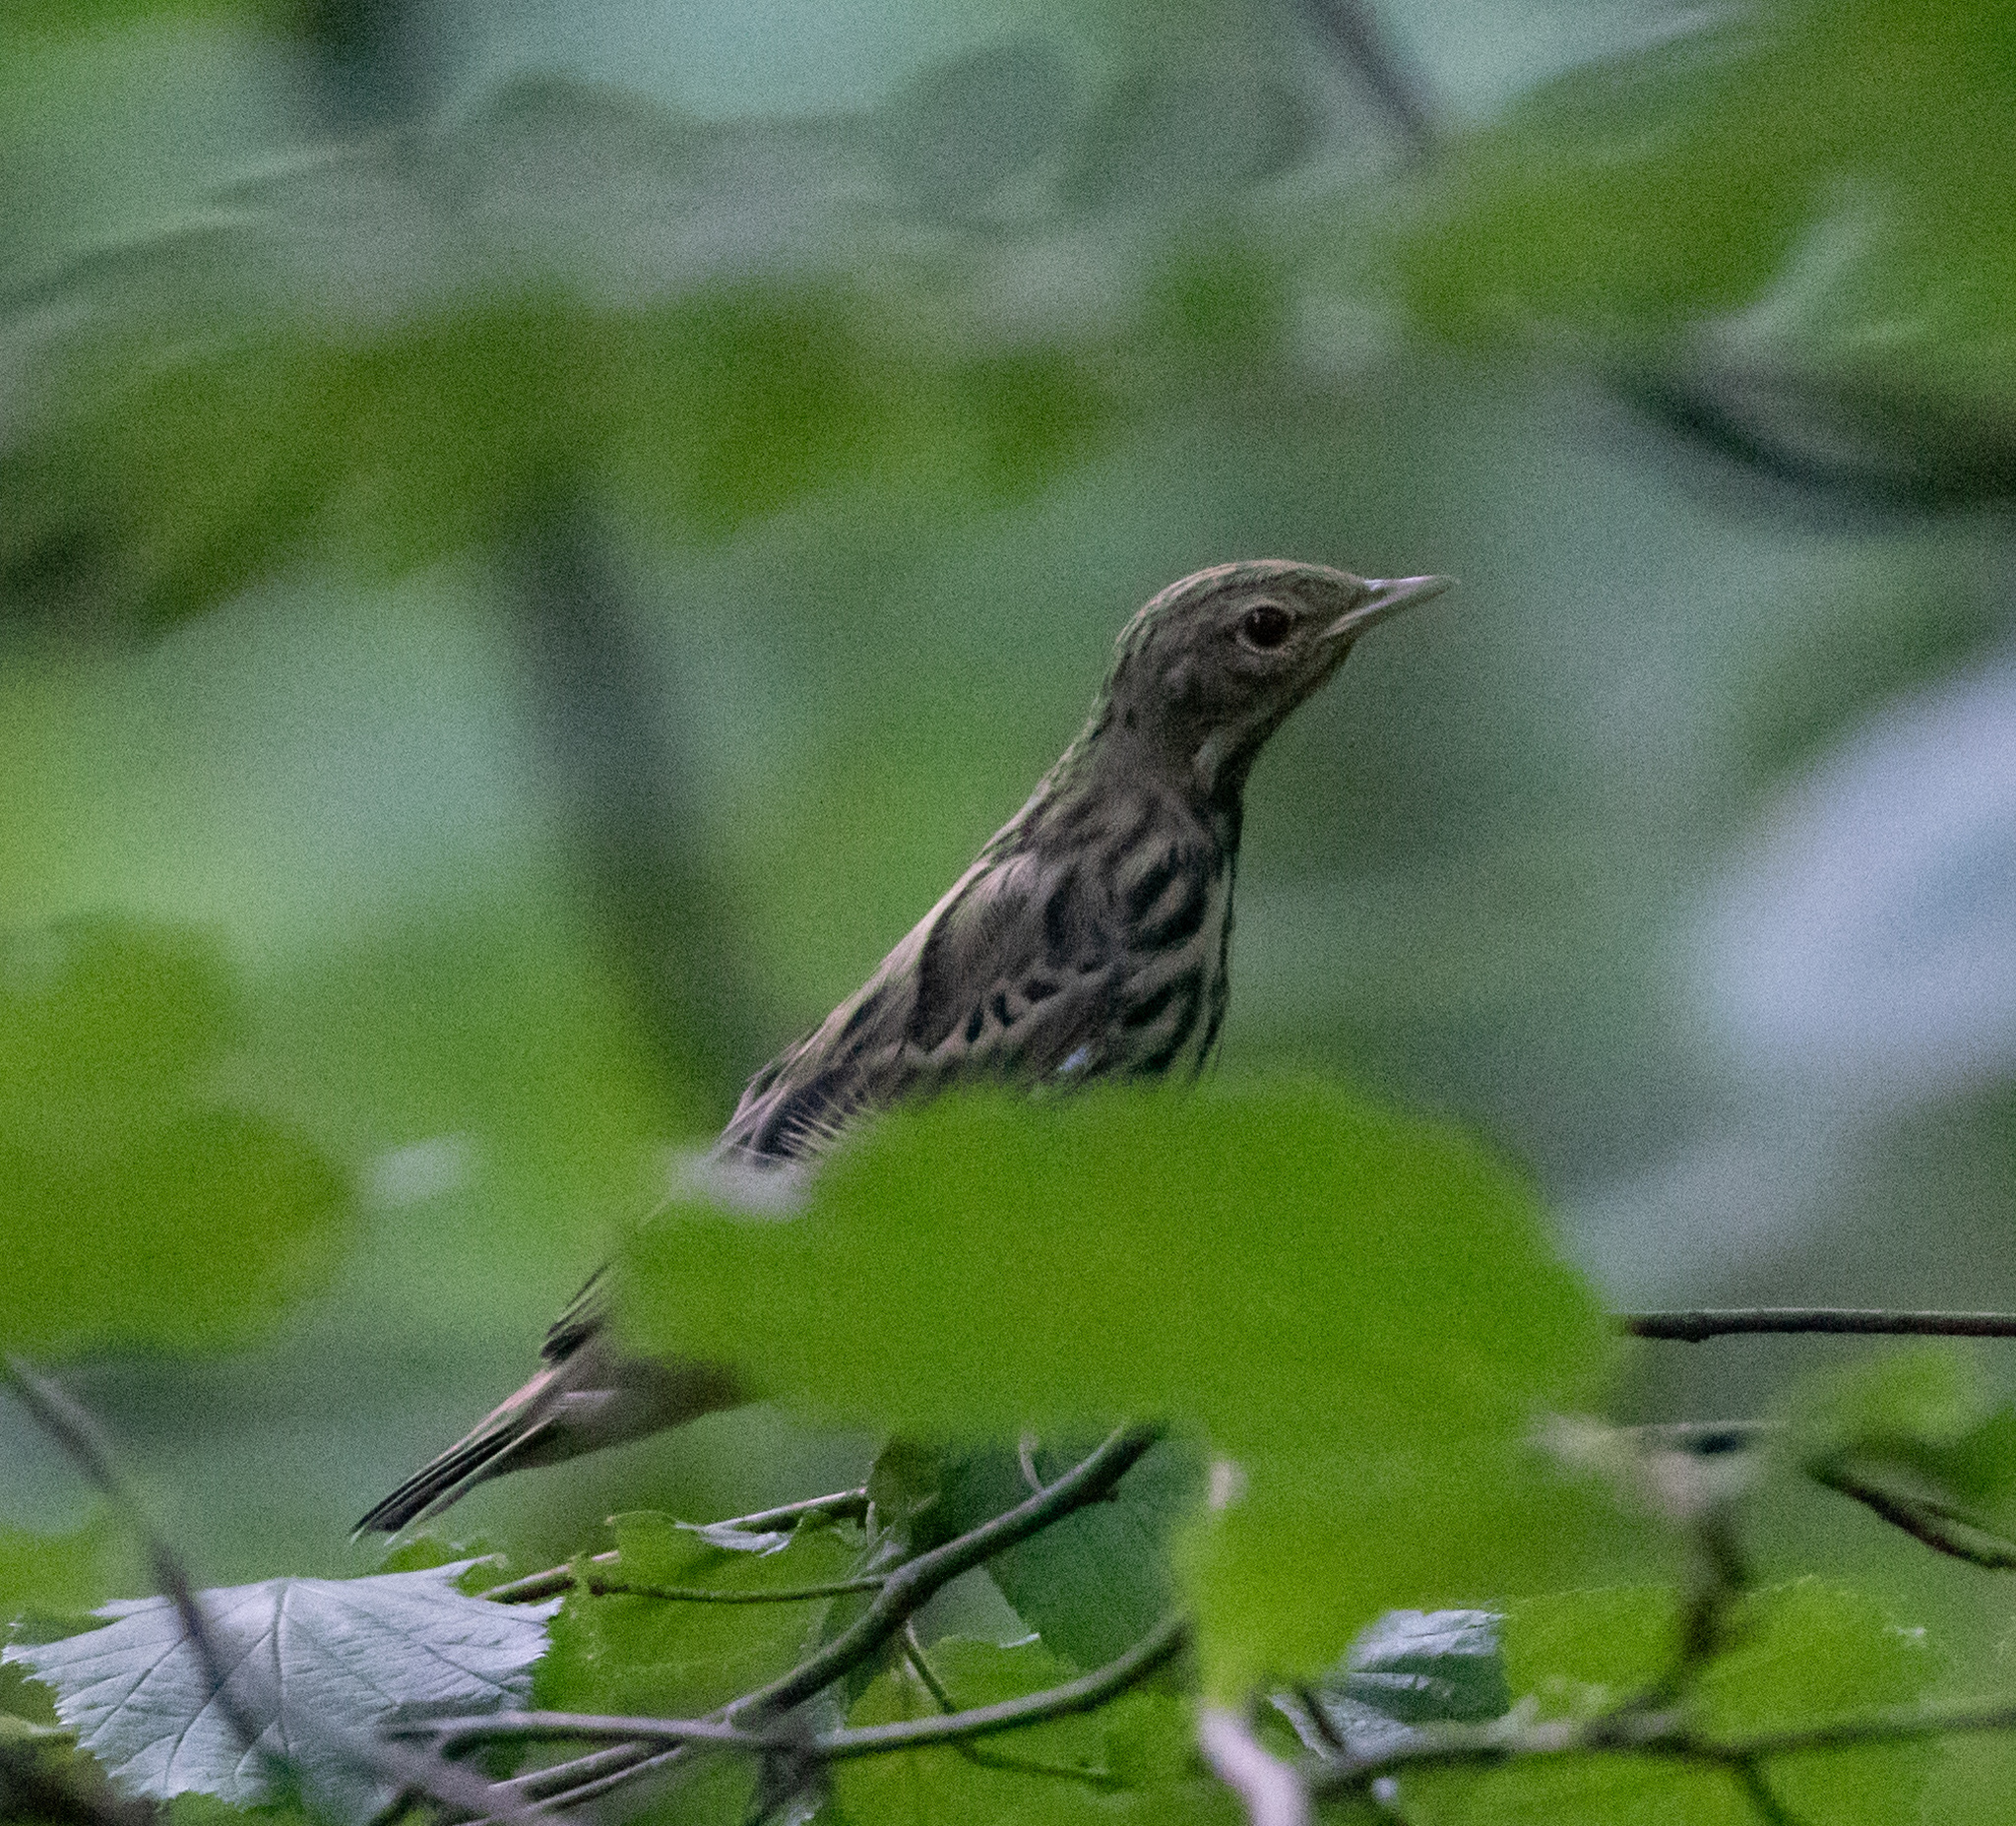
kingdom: Animalia
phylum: Chordata
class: Aves
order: Passeriformes
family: Turdidae
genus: Turdus
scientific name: Turdus philomelos
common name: Song thrush
